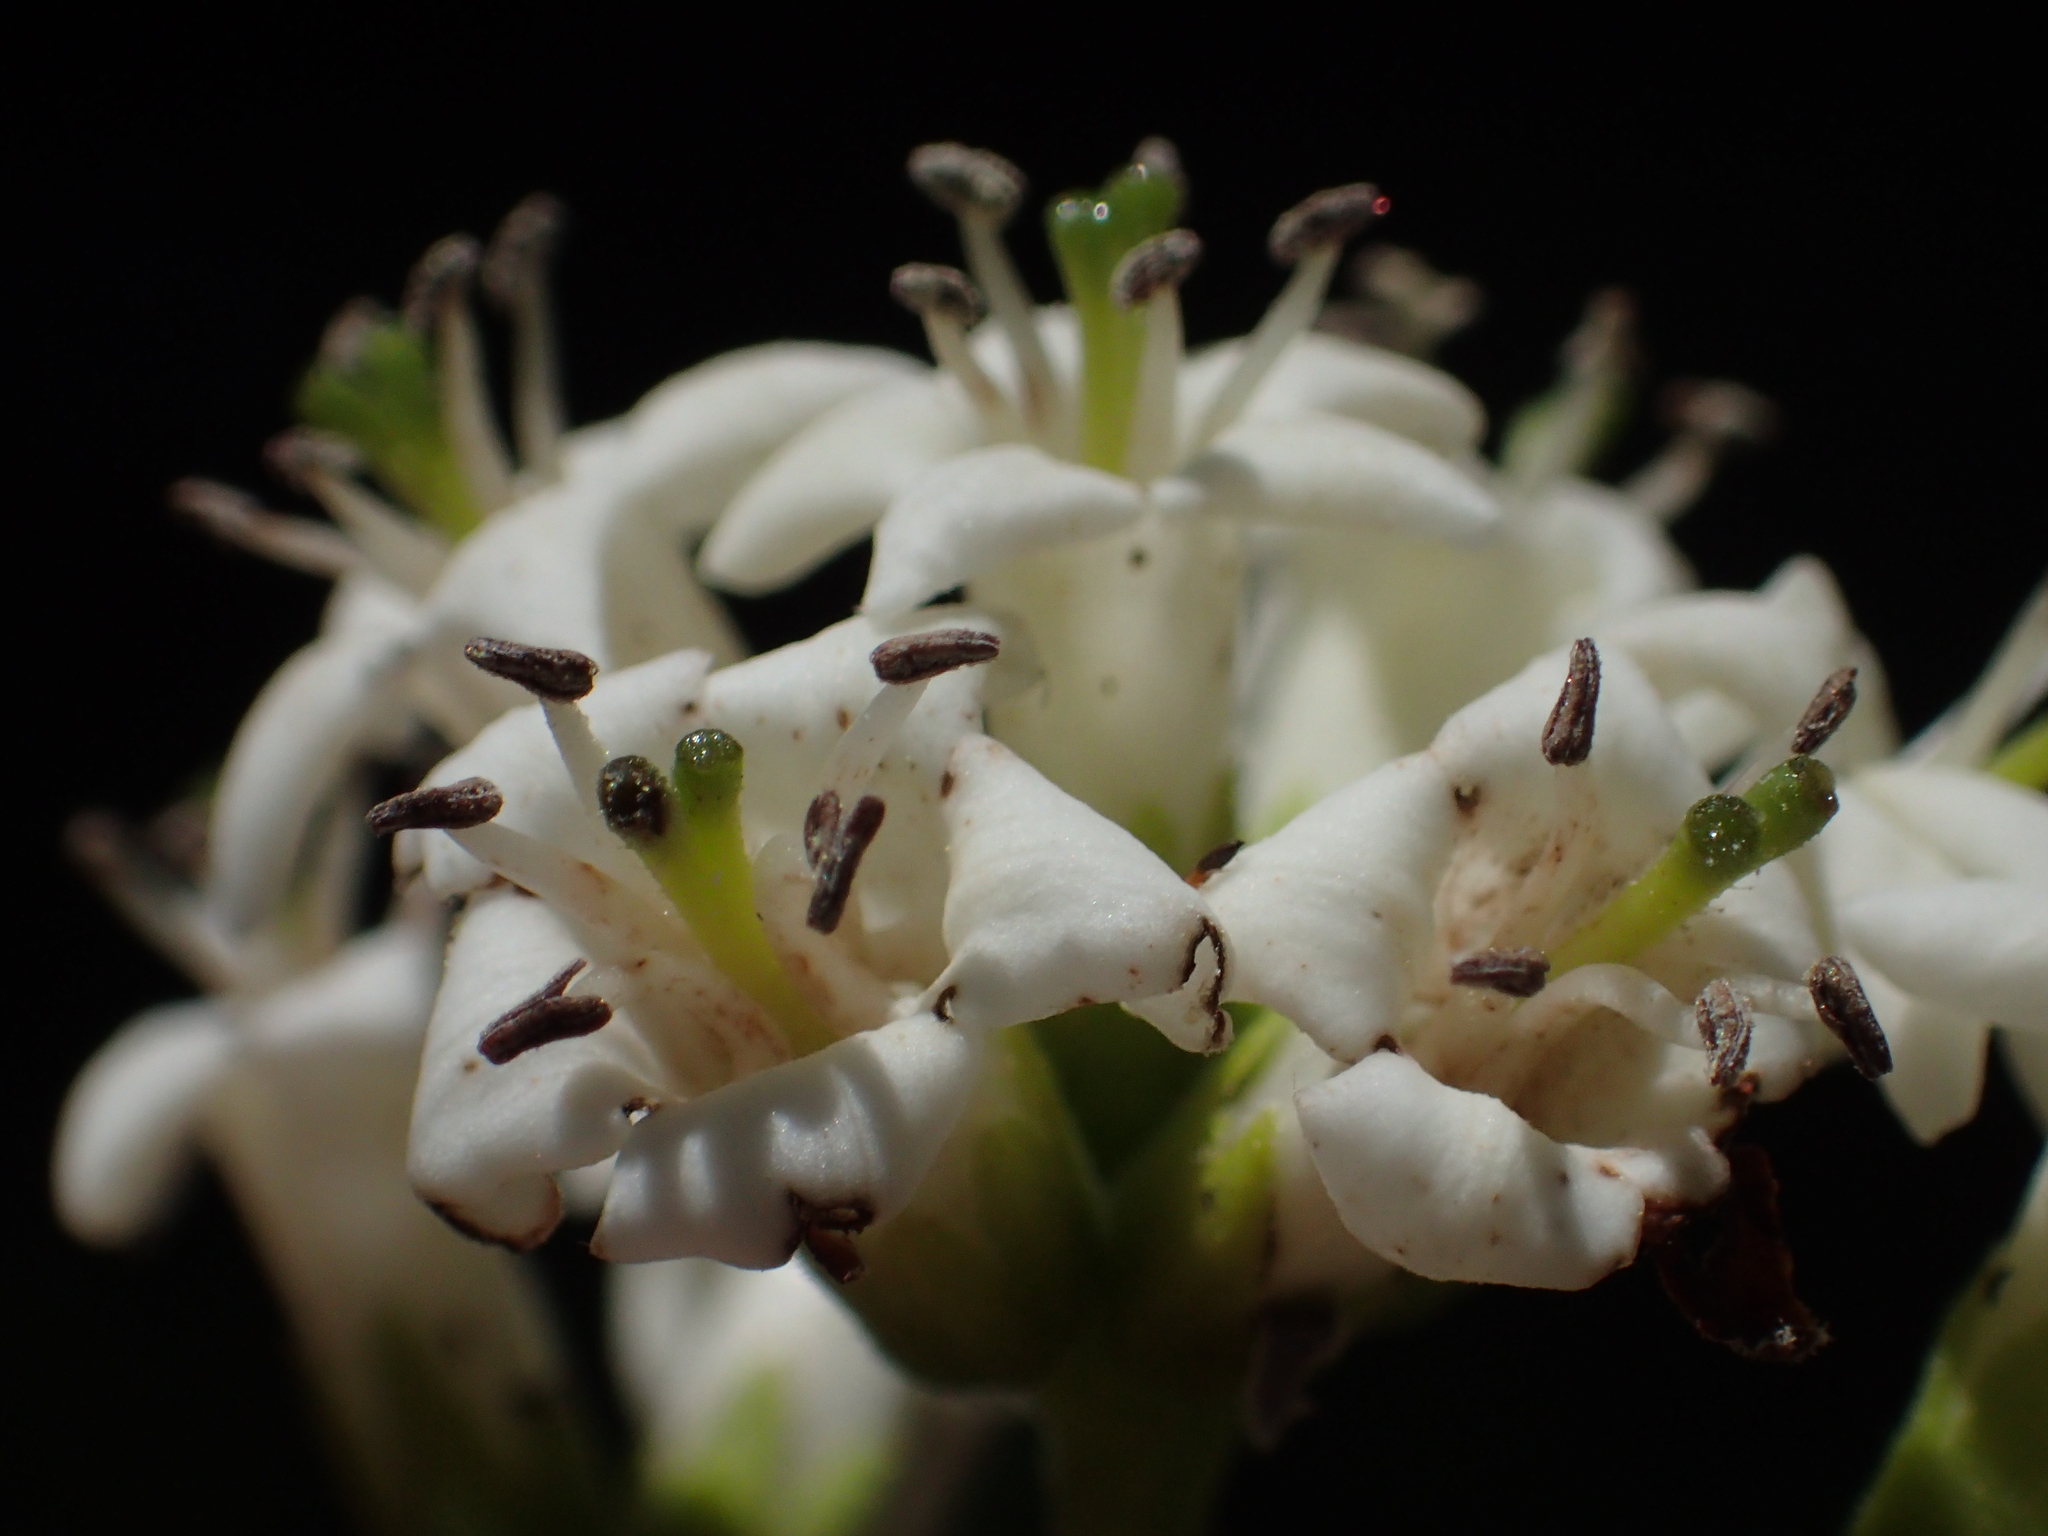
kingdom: Plantae
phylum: Tracheophyta
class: Magnoliopsida
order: Boraginales
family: Ehretiaceae
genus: Ehretia
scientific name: Ehretia dicksonii
